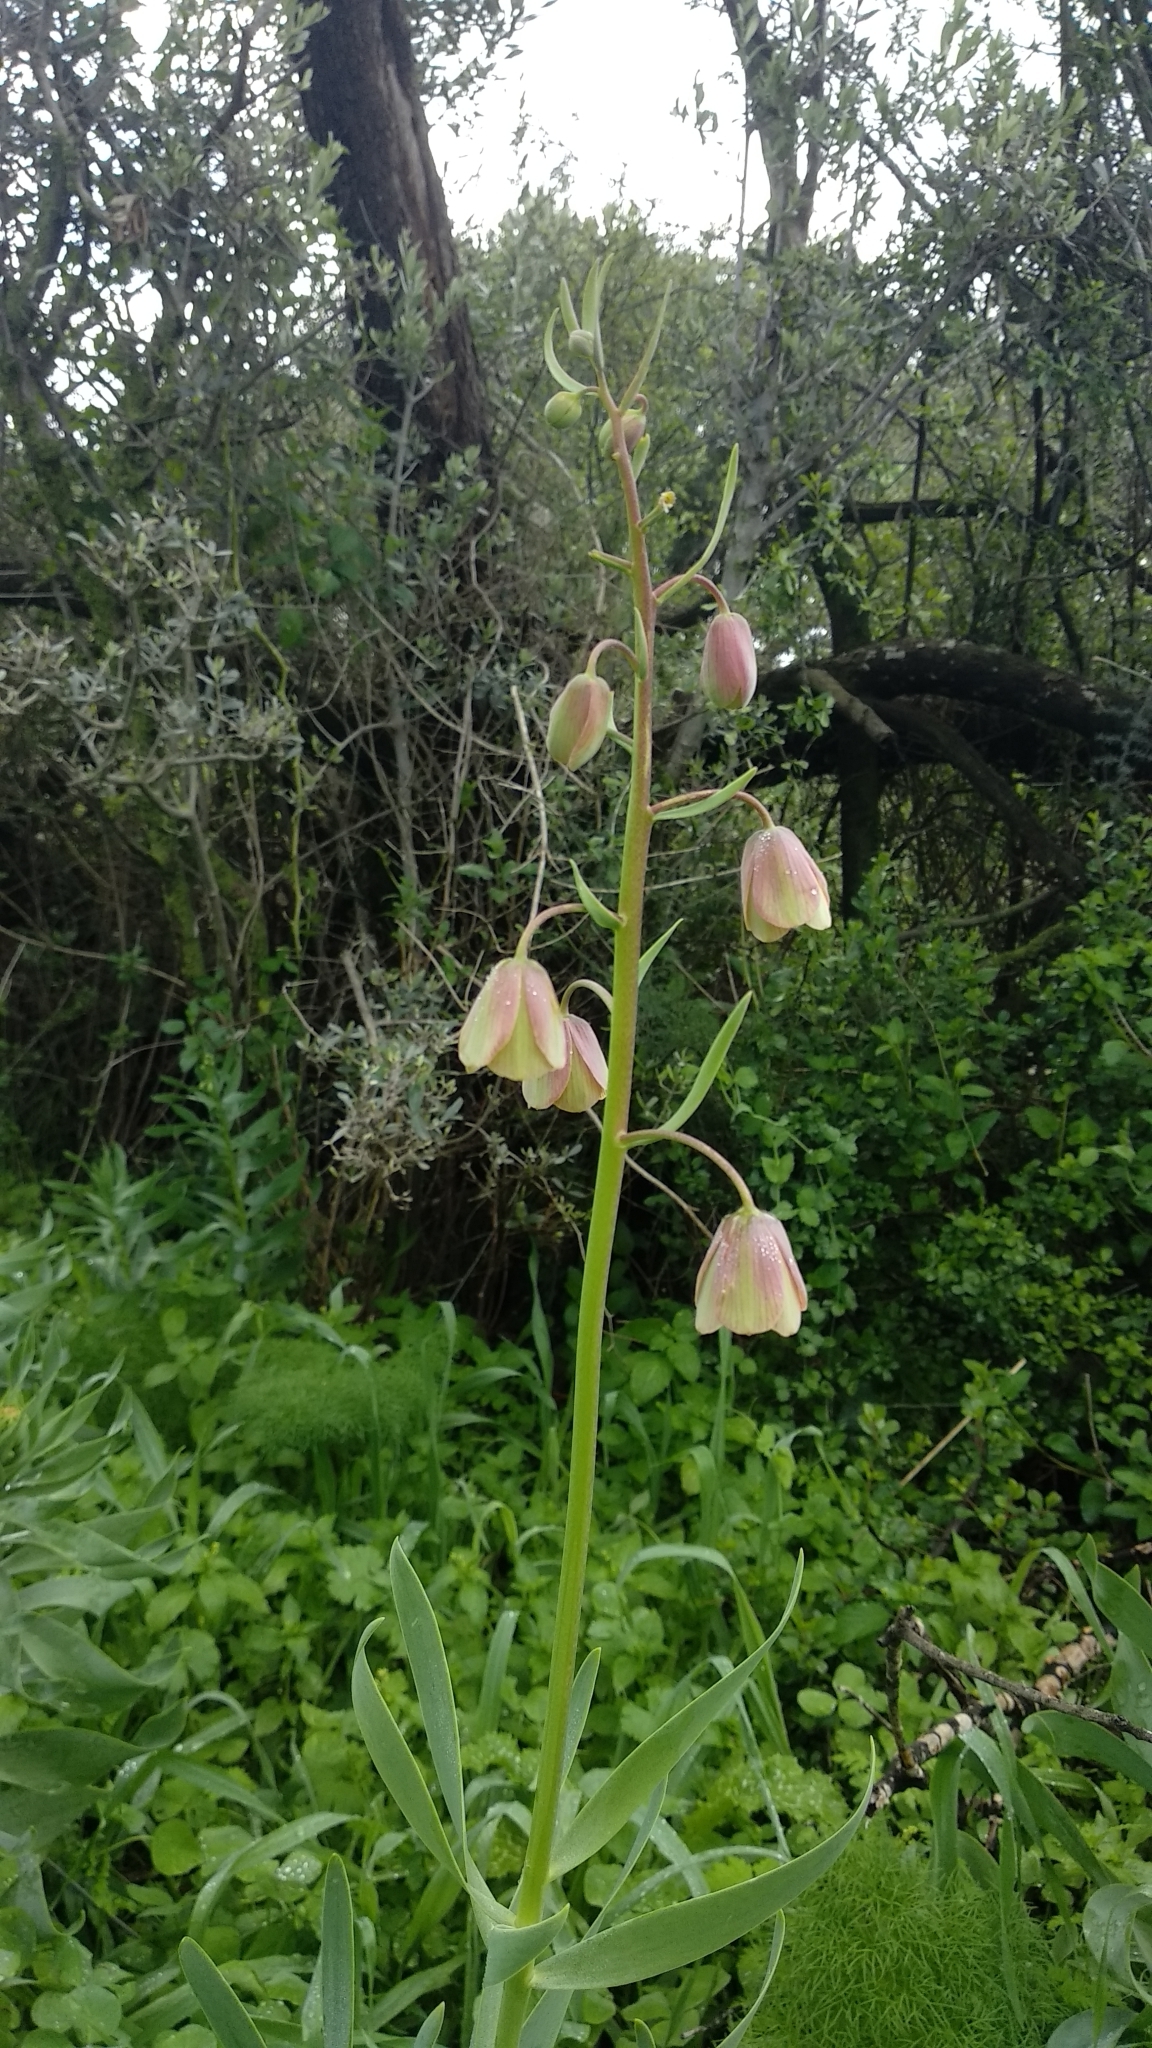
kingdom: Plantae
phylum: Tracheophyta
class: Liliopsida
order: Liliales
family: Liliaceae
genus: Fritillaria
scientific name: Fritillaria persica
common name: Persian fritillary
